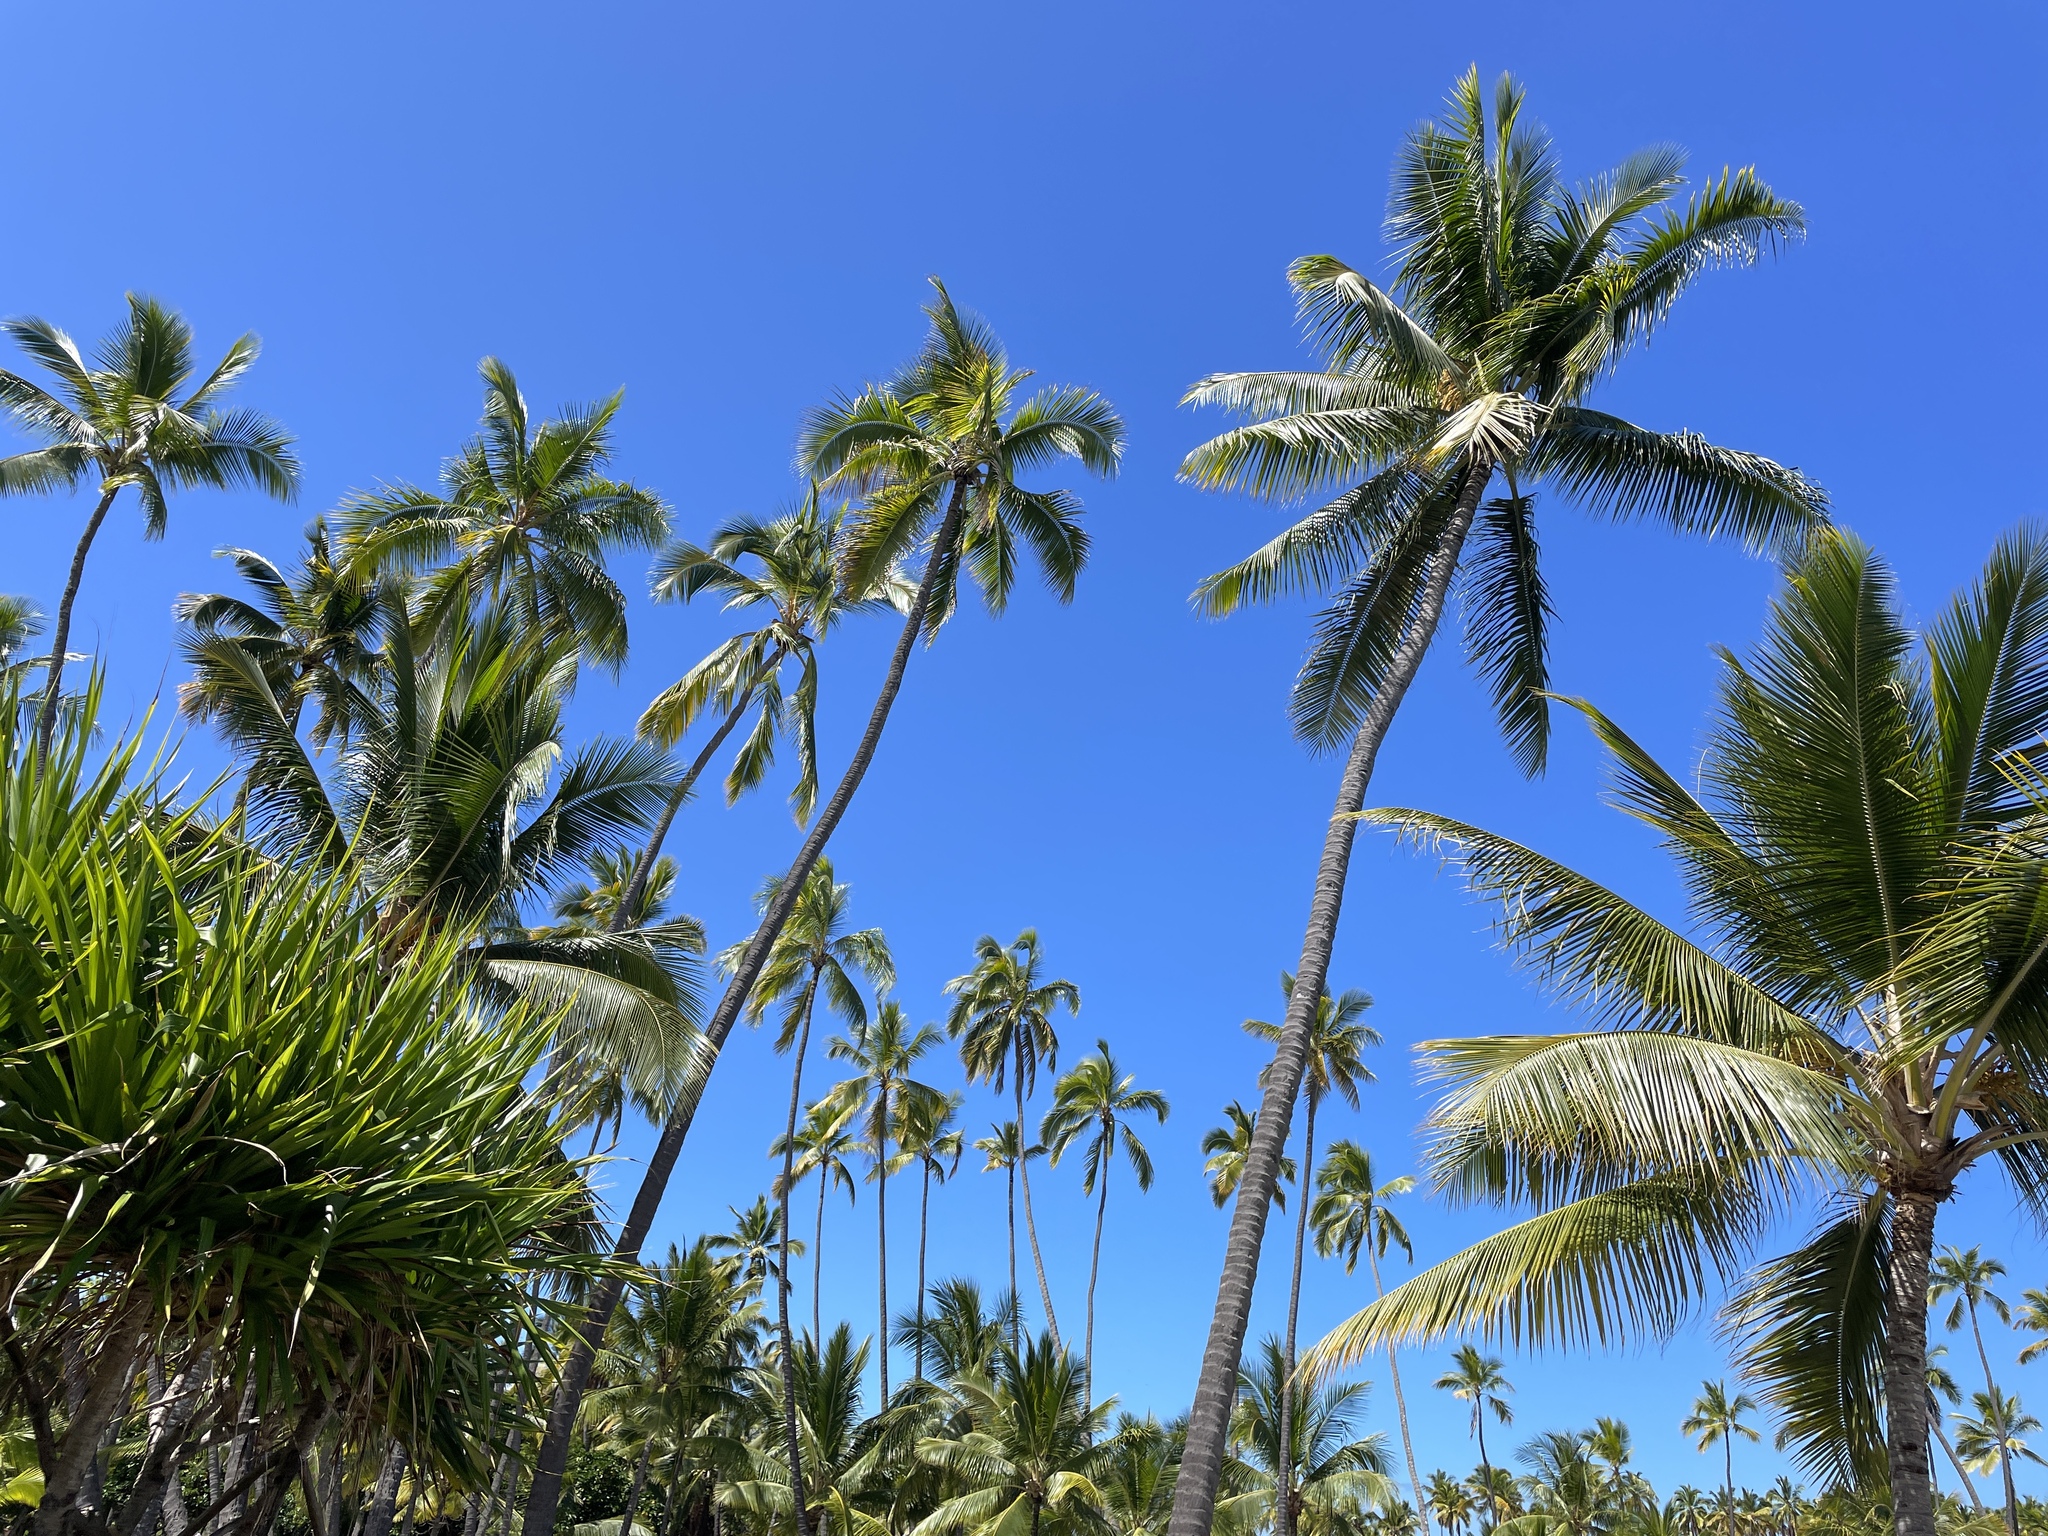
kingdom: Plantae
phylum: Tracheophyta
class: Liliopsida
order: Arecales
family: Arecaceae
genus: Cocos
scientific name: Cocos nucifera
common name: Coconut palm
